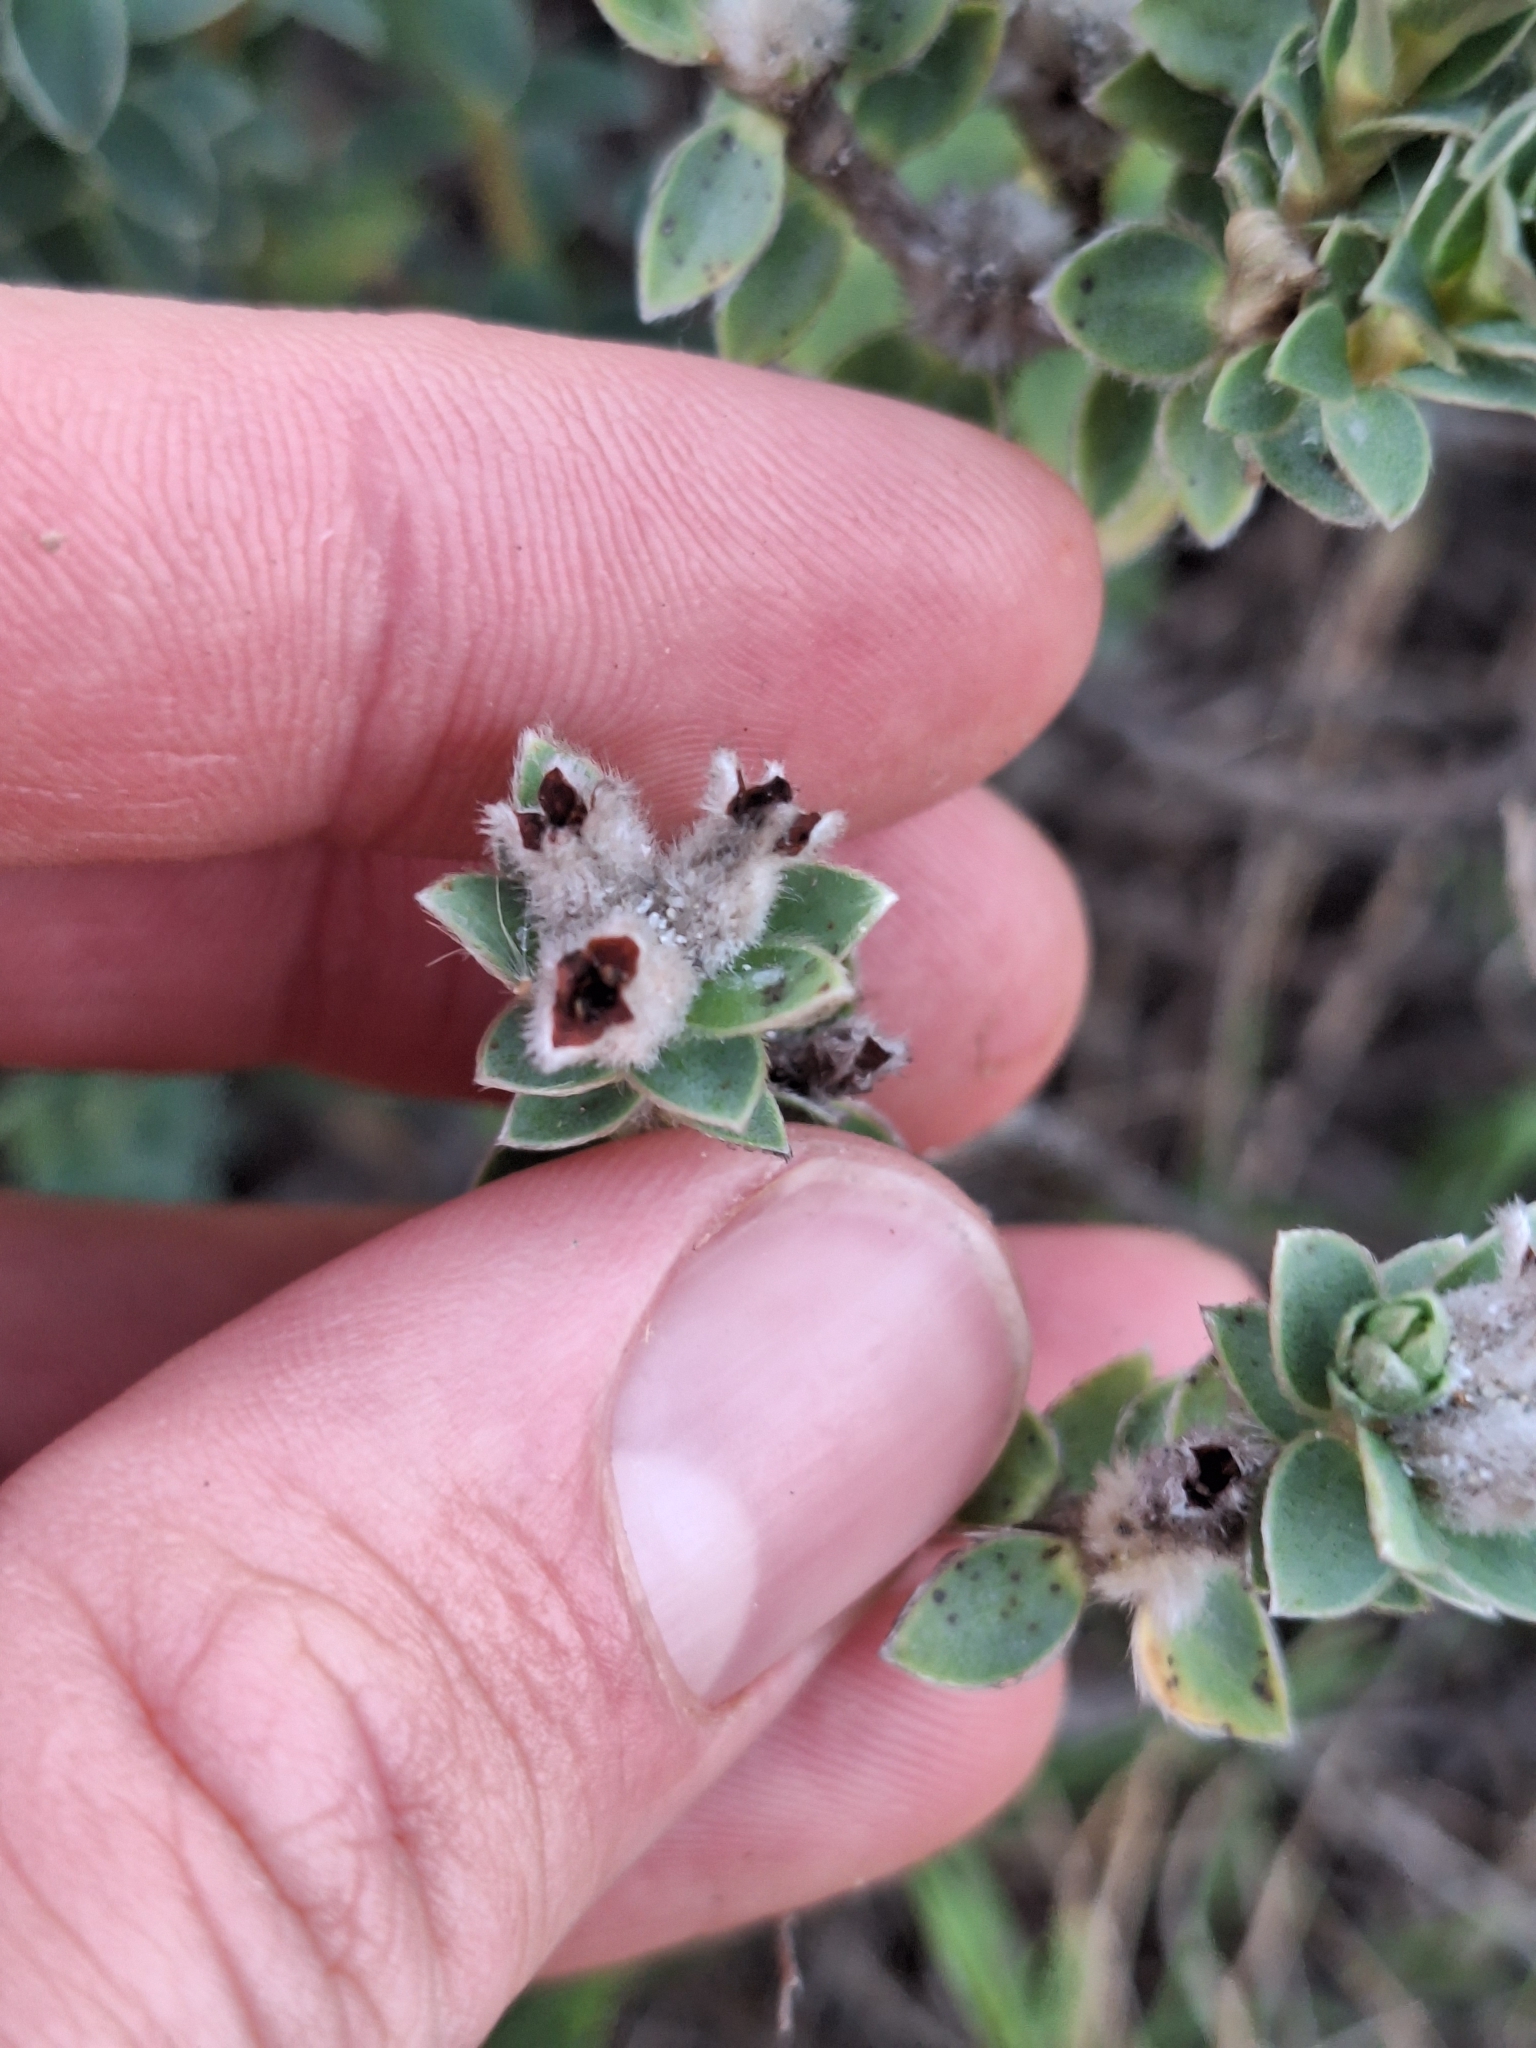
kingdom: Plantae
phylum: Tracheophyta
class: Magnoliopsida
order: Malvales
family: Thymelaeaceae
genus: Pimelea
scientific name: Pimelea villosa
